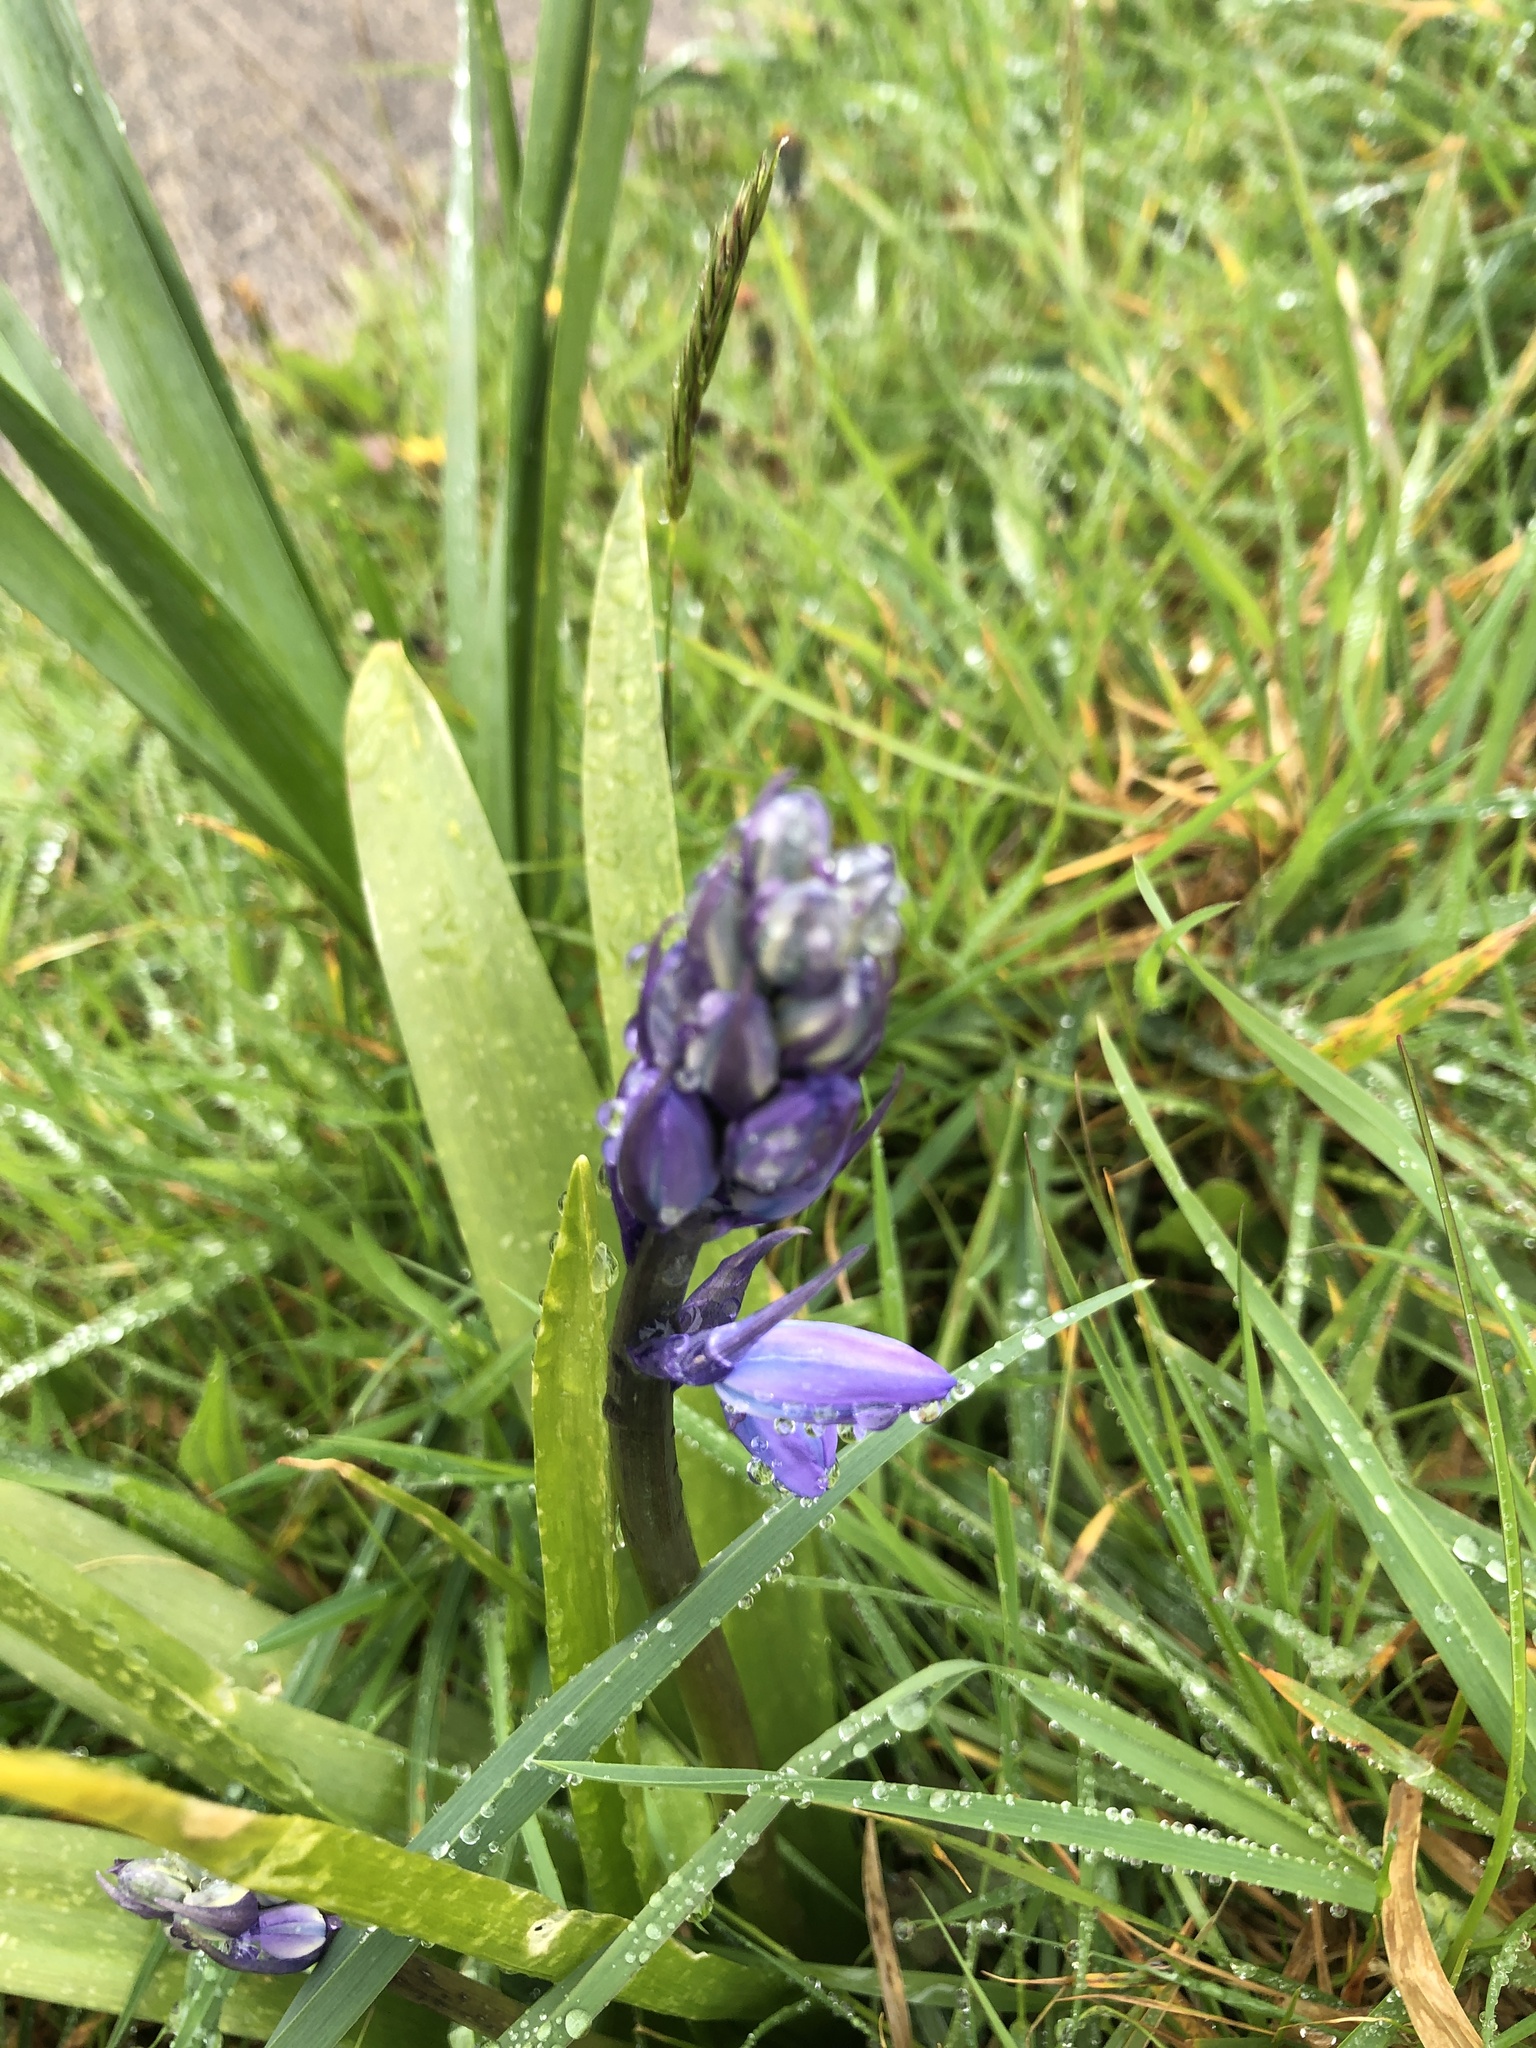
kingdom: Plantae
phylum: Tracheophyta
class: Liliopsida
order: Asparagales
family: Asparagaceae
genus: Hyacinthoides
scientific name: Hyacinthoides massartiana
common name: Hyacinthoides
